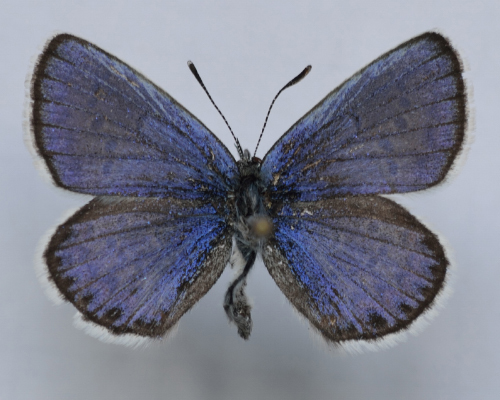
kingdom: Animalia
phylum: Arthropoda
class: Insecta
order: Lepidoptera
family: Lycaenidae
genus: Lycaeides
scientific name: Lycaeides idas
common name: Northern blue
